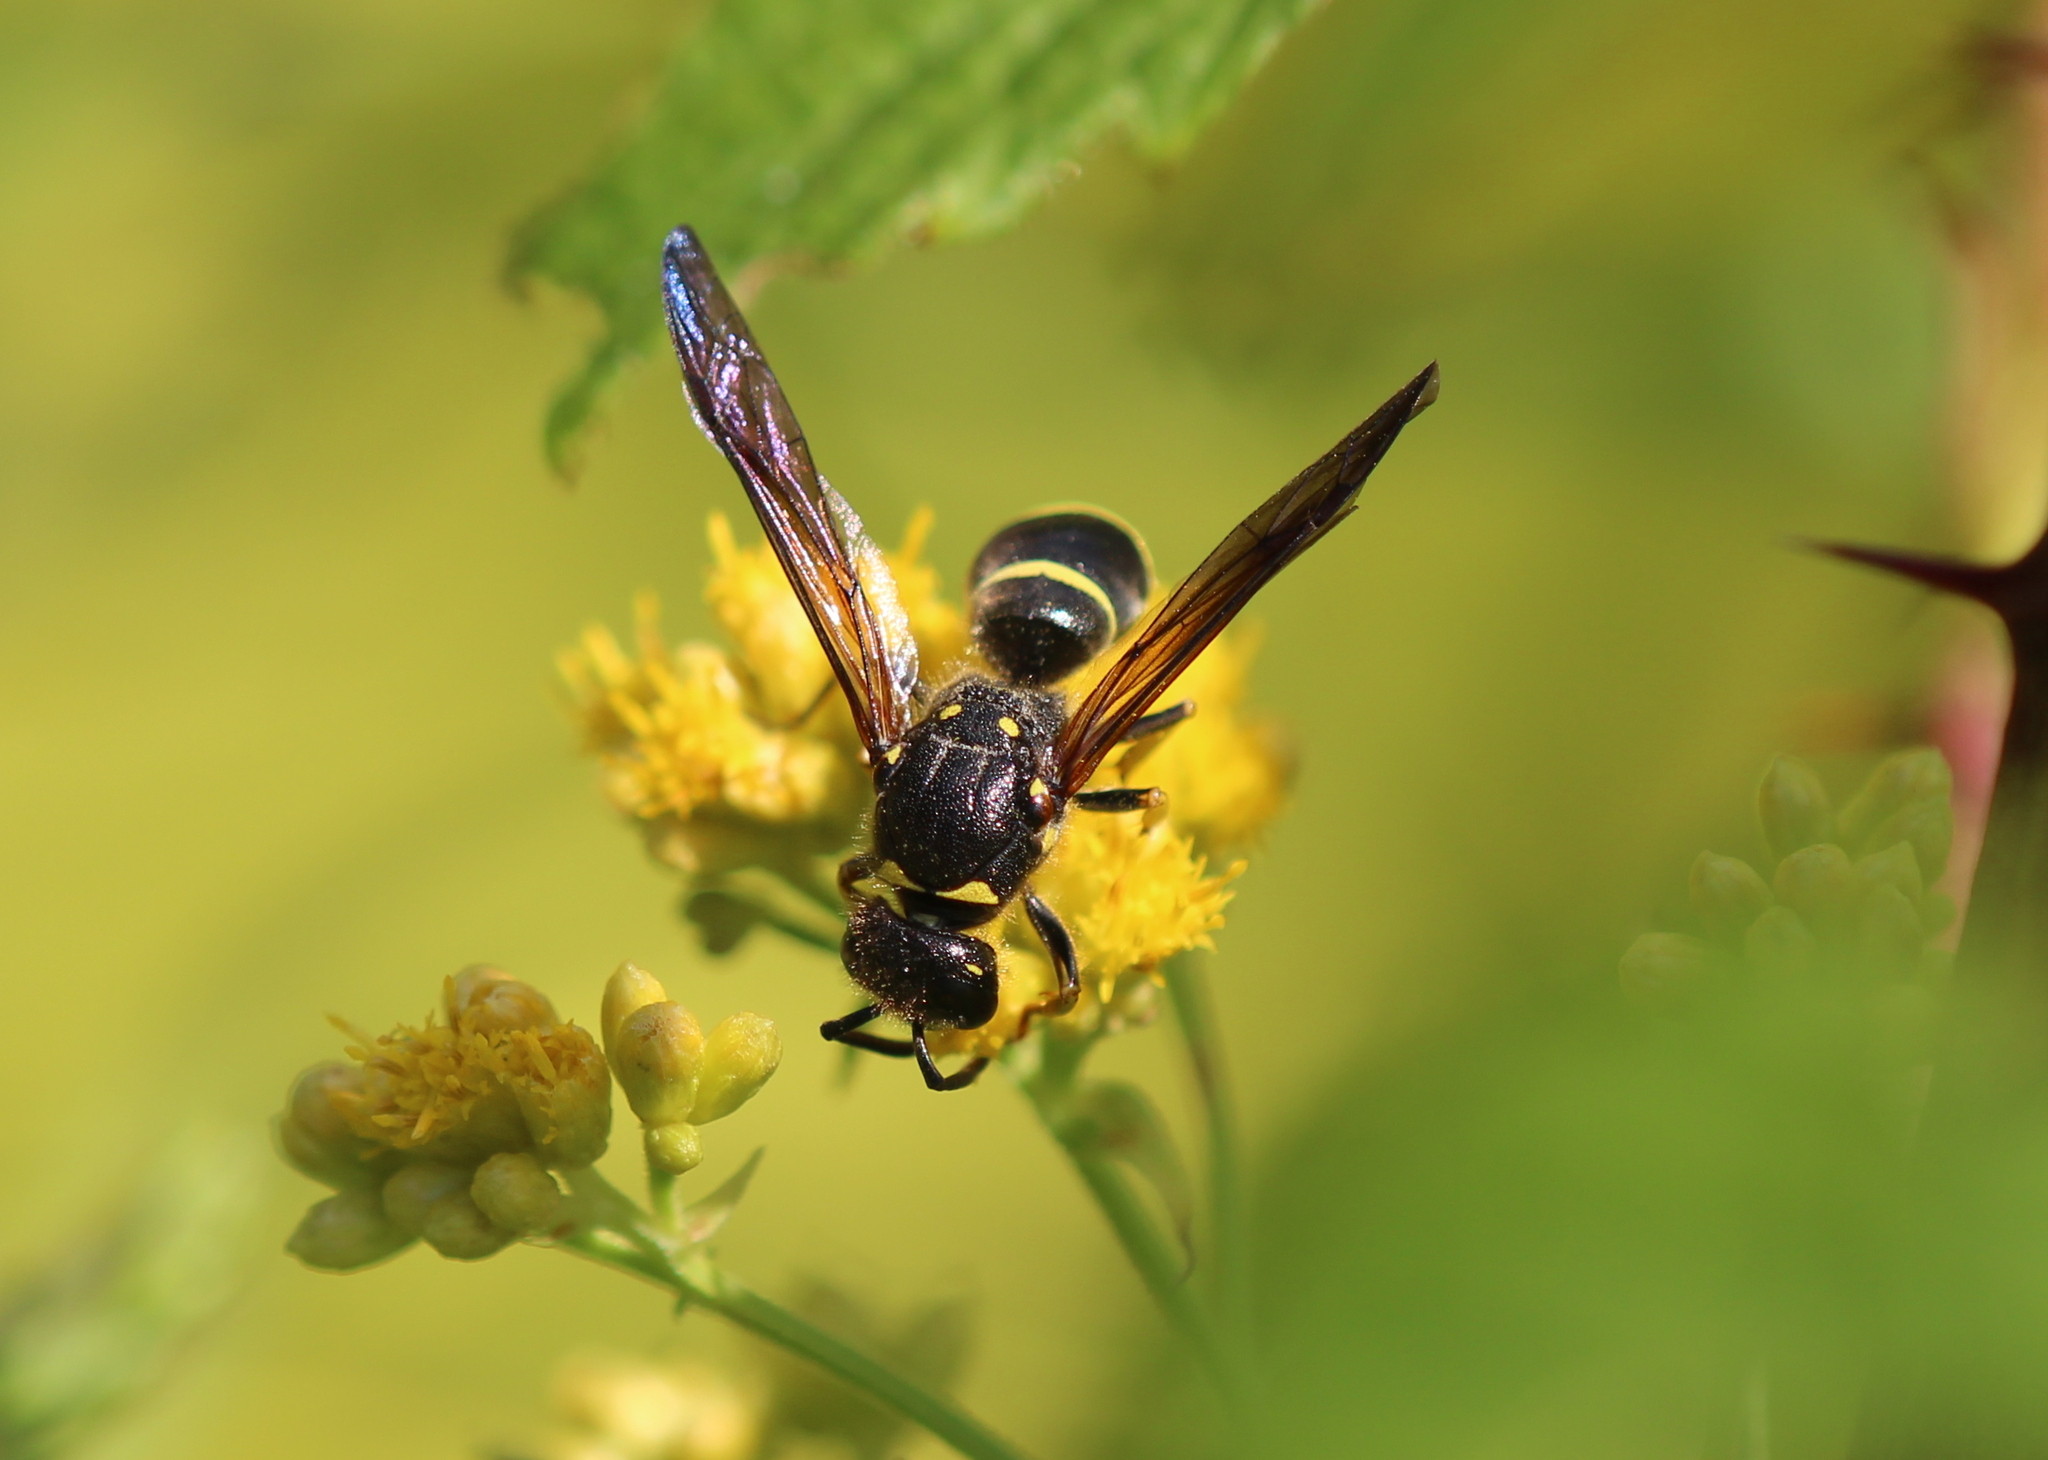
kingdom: Animalia
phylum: Arthropoda
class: Insecta
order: Hymenoptera
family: Vespidae
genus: Ancistrocerus
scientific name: Ancistrocerus
